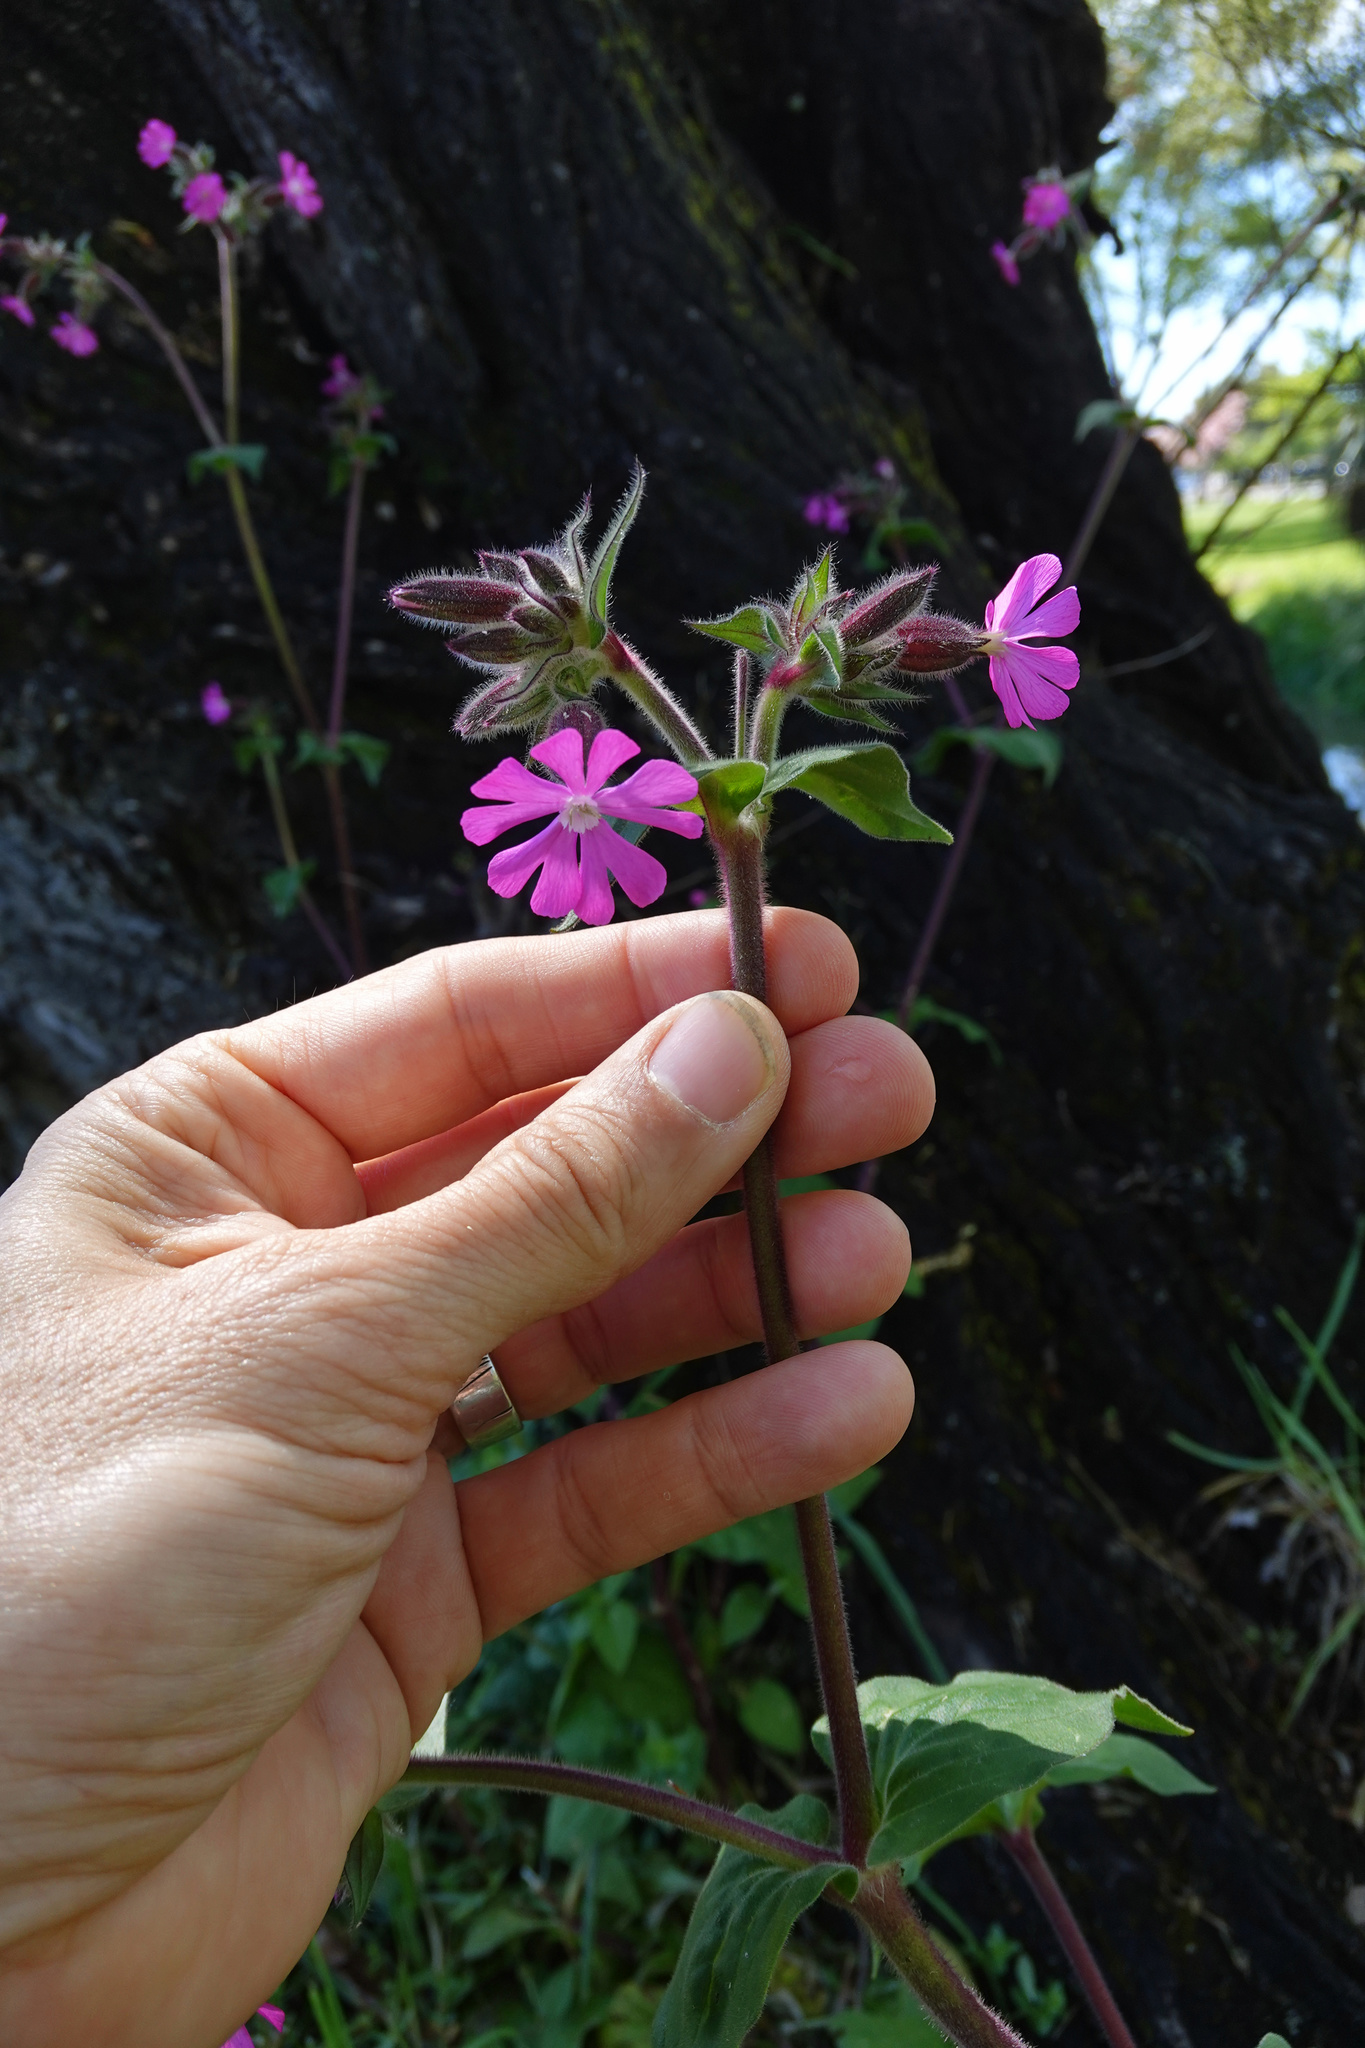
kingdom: Plantae
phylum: Tracheophyta
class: Magnoliopsida
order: Caryophyllales
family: Caryophyllaceae
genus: Silene
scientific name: Silene dioica
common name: Red campion
